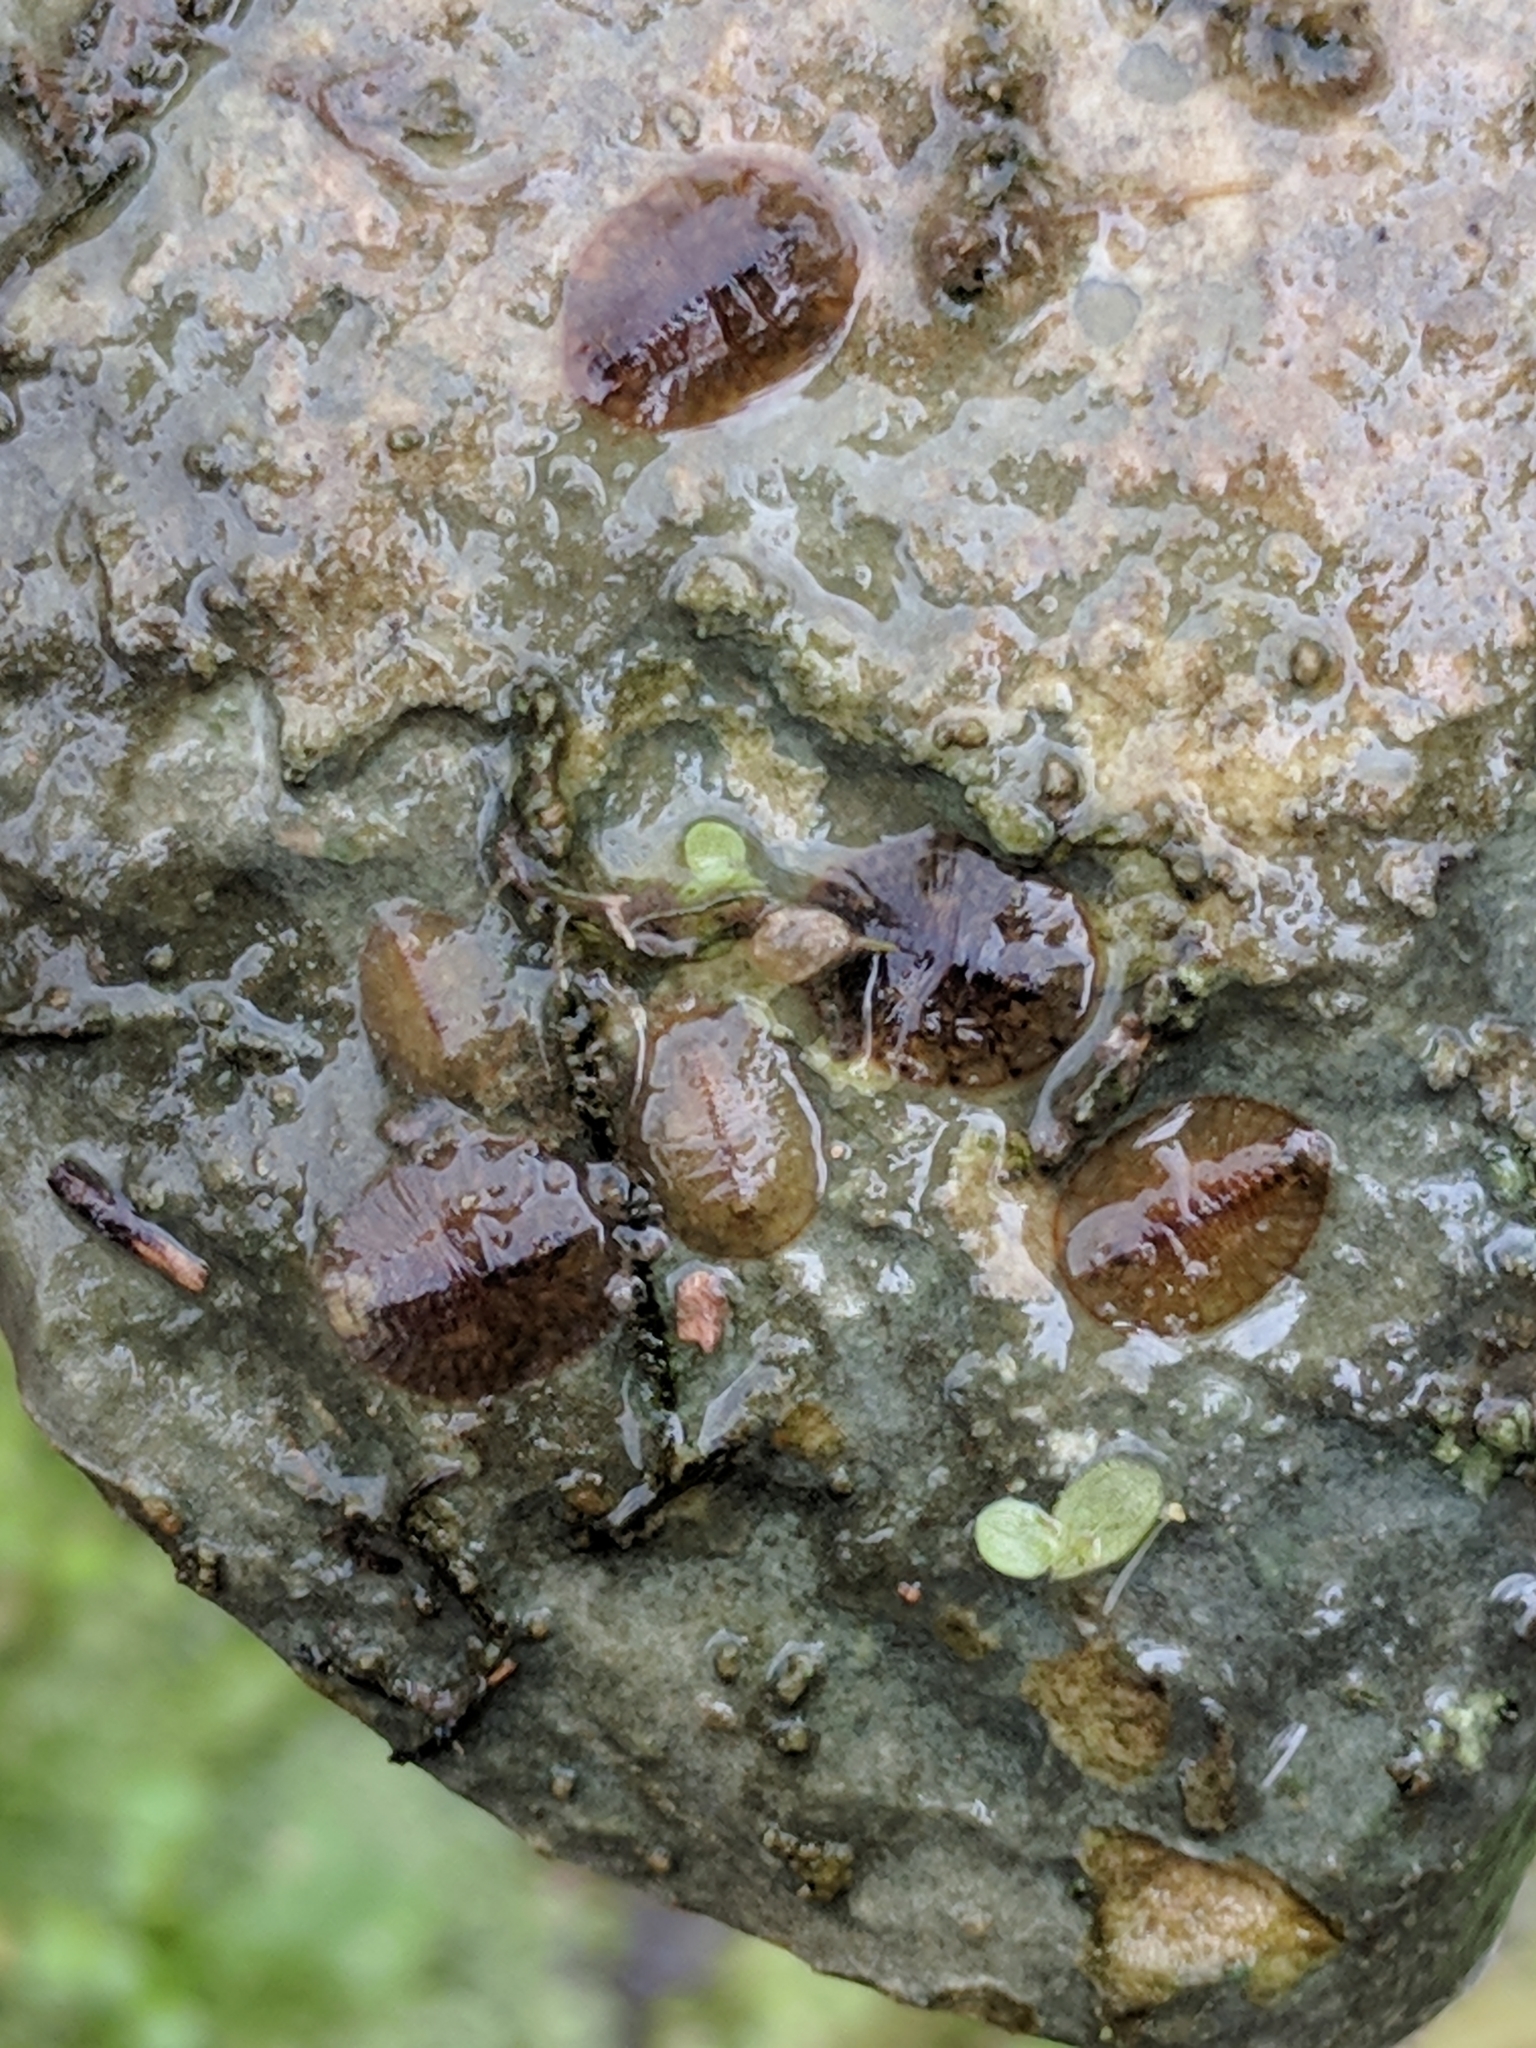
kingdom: Animalia
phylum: Arthropoda
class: Insecta
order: Coleoptera
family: Psephenidae
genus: Psephenus
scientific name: Psephenus texanus
